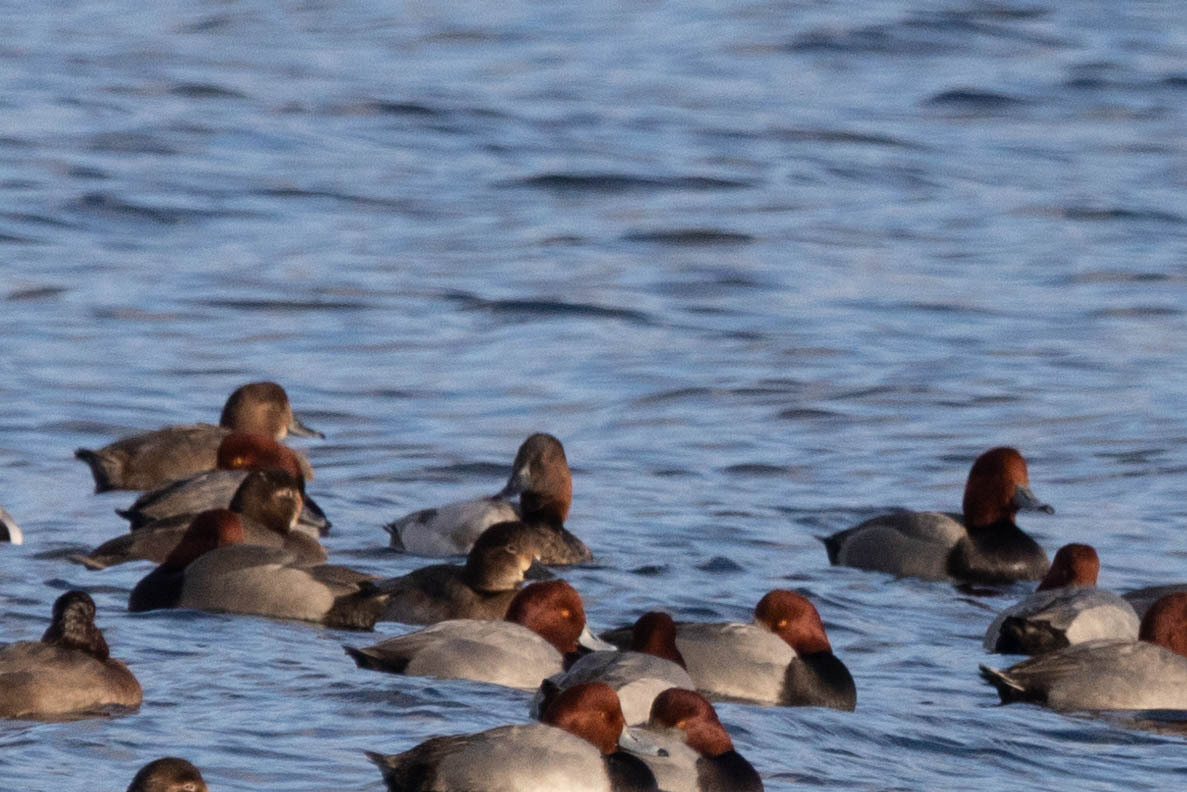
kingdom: Animalia
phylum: Chordata
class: Aves
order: Anseriformes
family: Anatidae
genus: Aythya
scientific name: Aythya valisineria
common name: Canvasback
